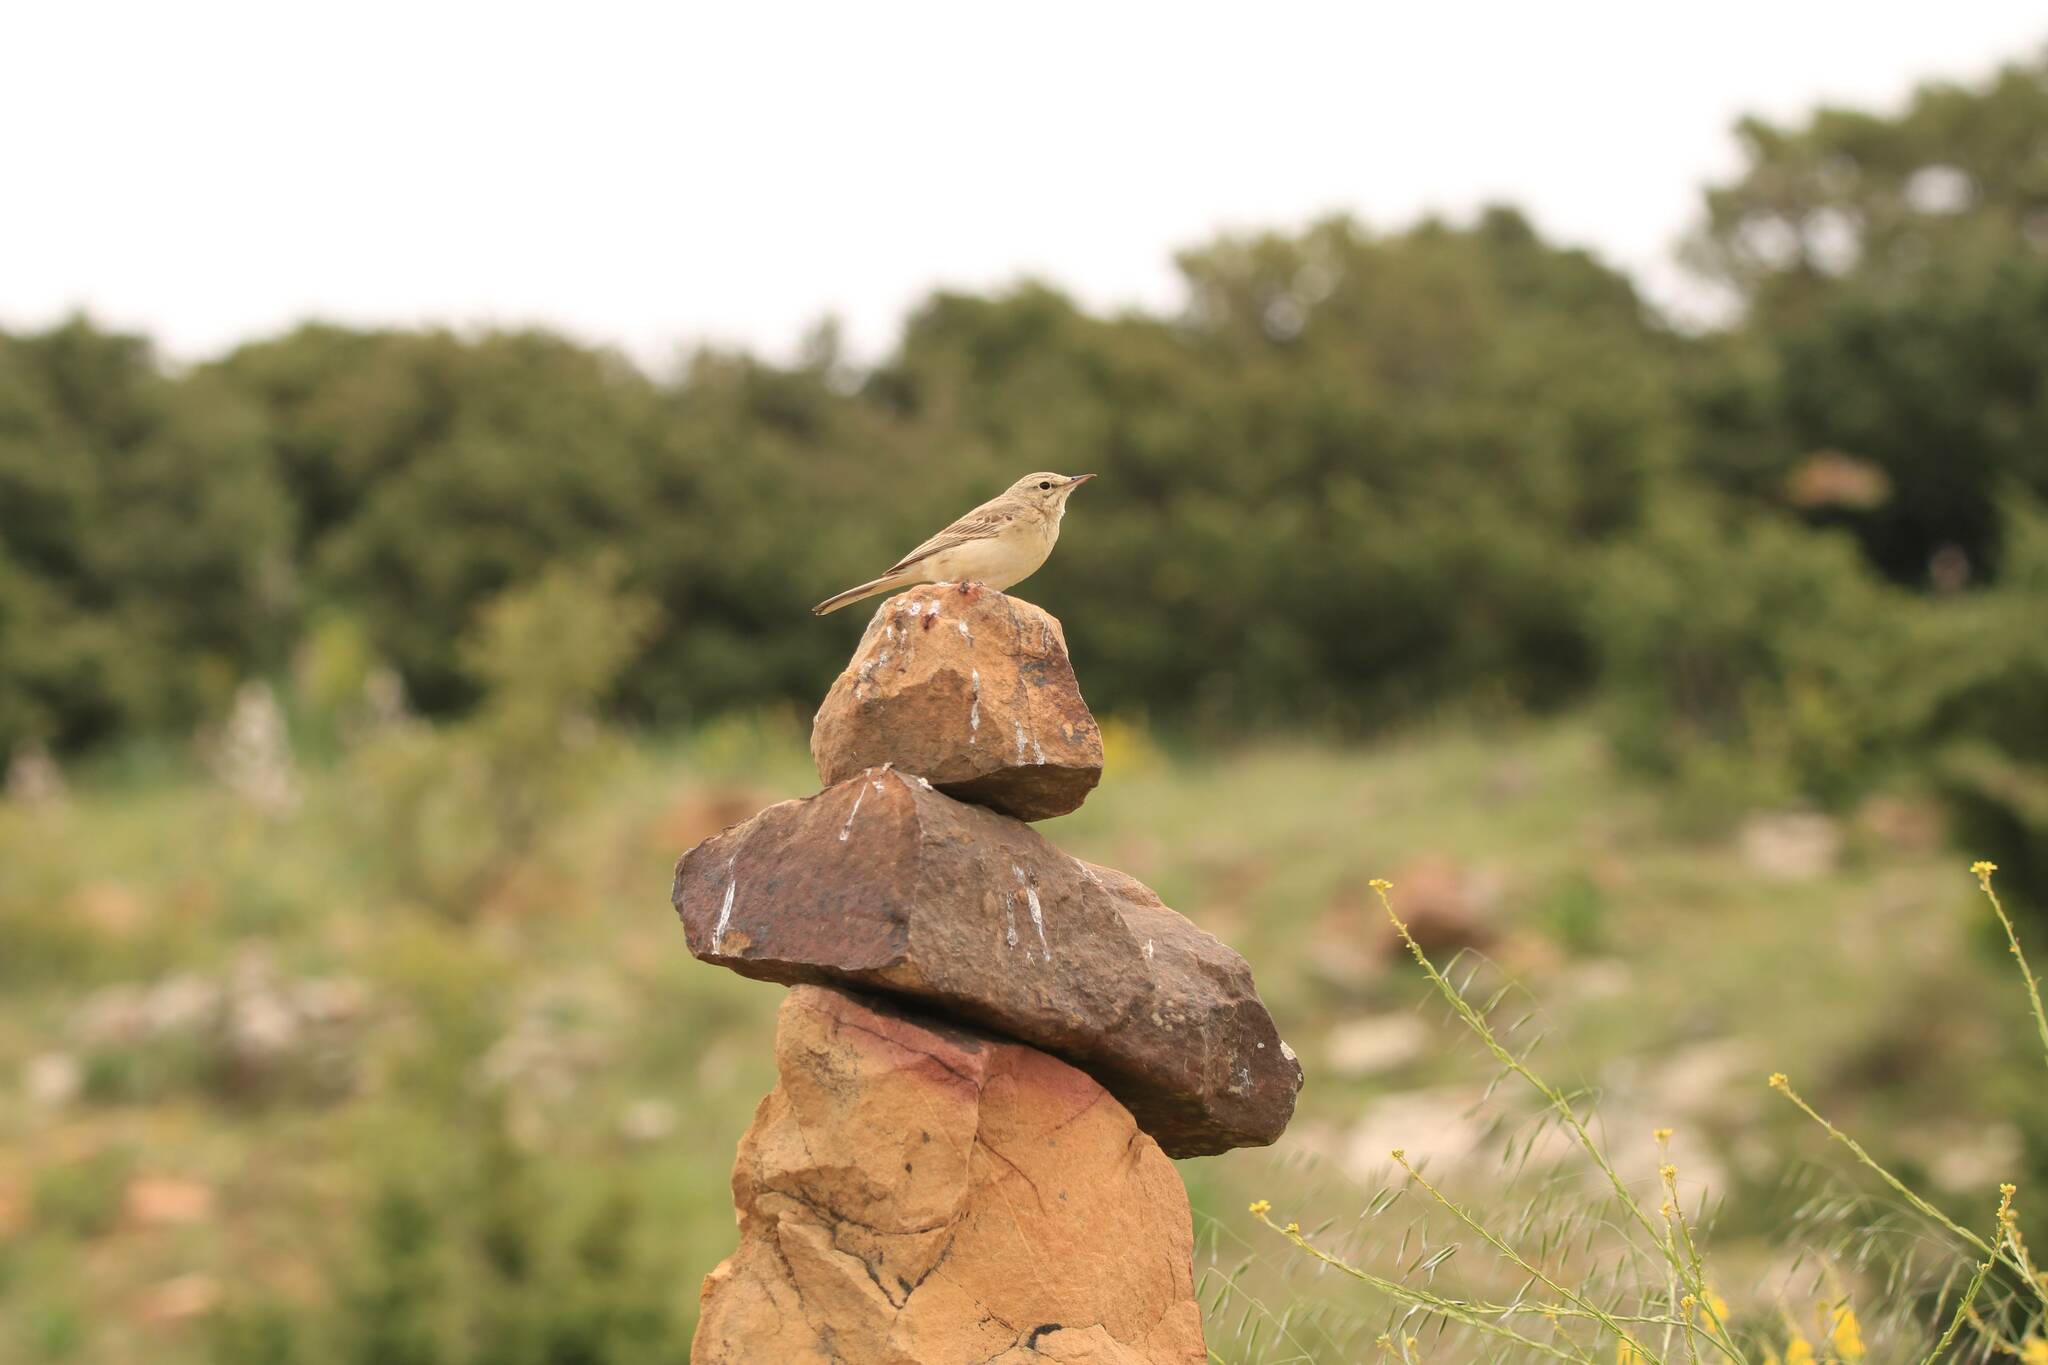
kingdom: Animalia
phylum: Chordata
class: Aves
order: Passeriformes
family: Motacillidae
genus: Anthus
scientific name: Anthus campestris
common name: Tawny pipit
